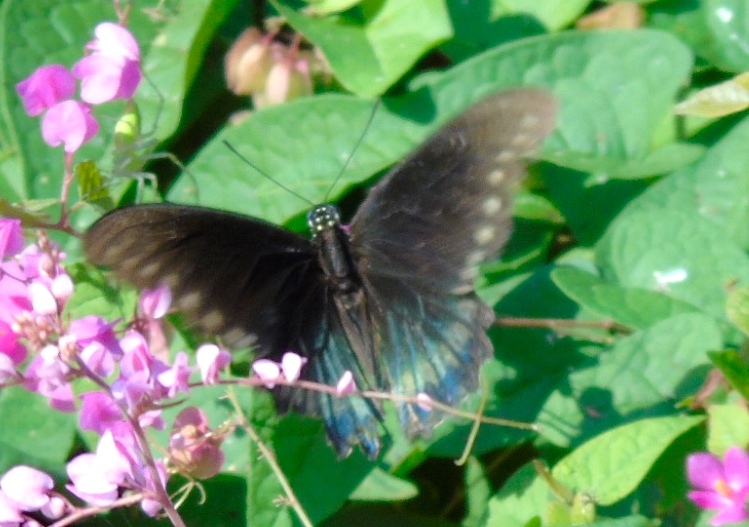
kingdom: Animalia
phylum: Arthropoda
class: Insecta
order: Lepidoptera
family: Papilionidae
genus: Battus
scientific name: Battus polydamas
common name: Polydamas swallowtail
